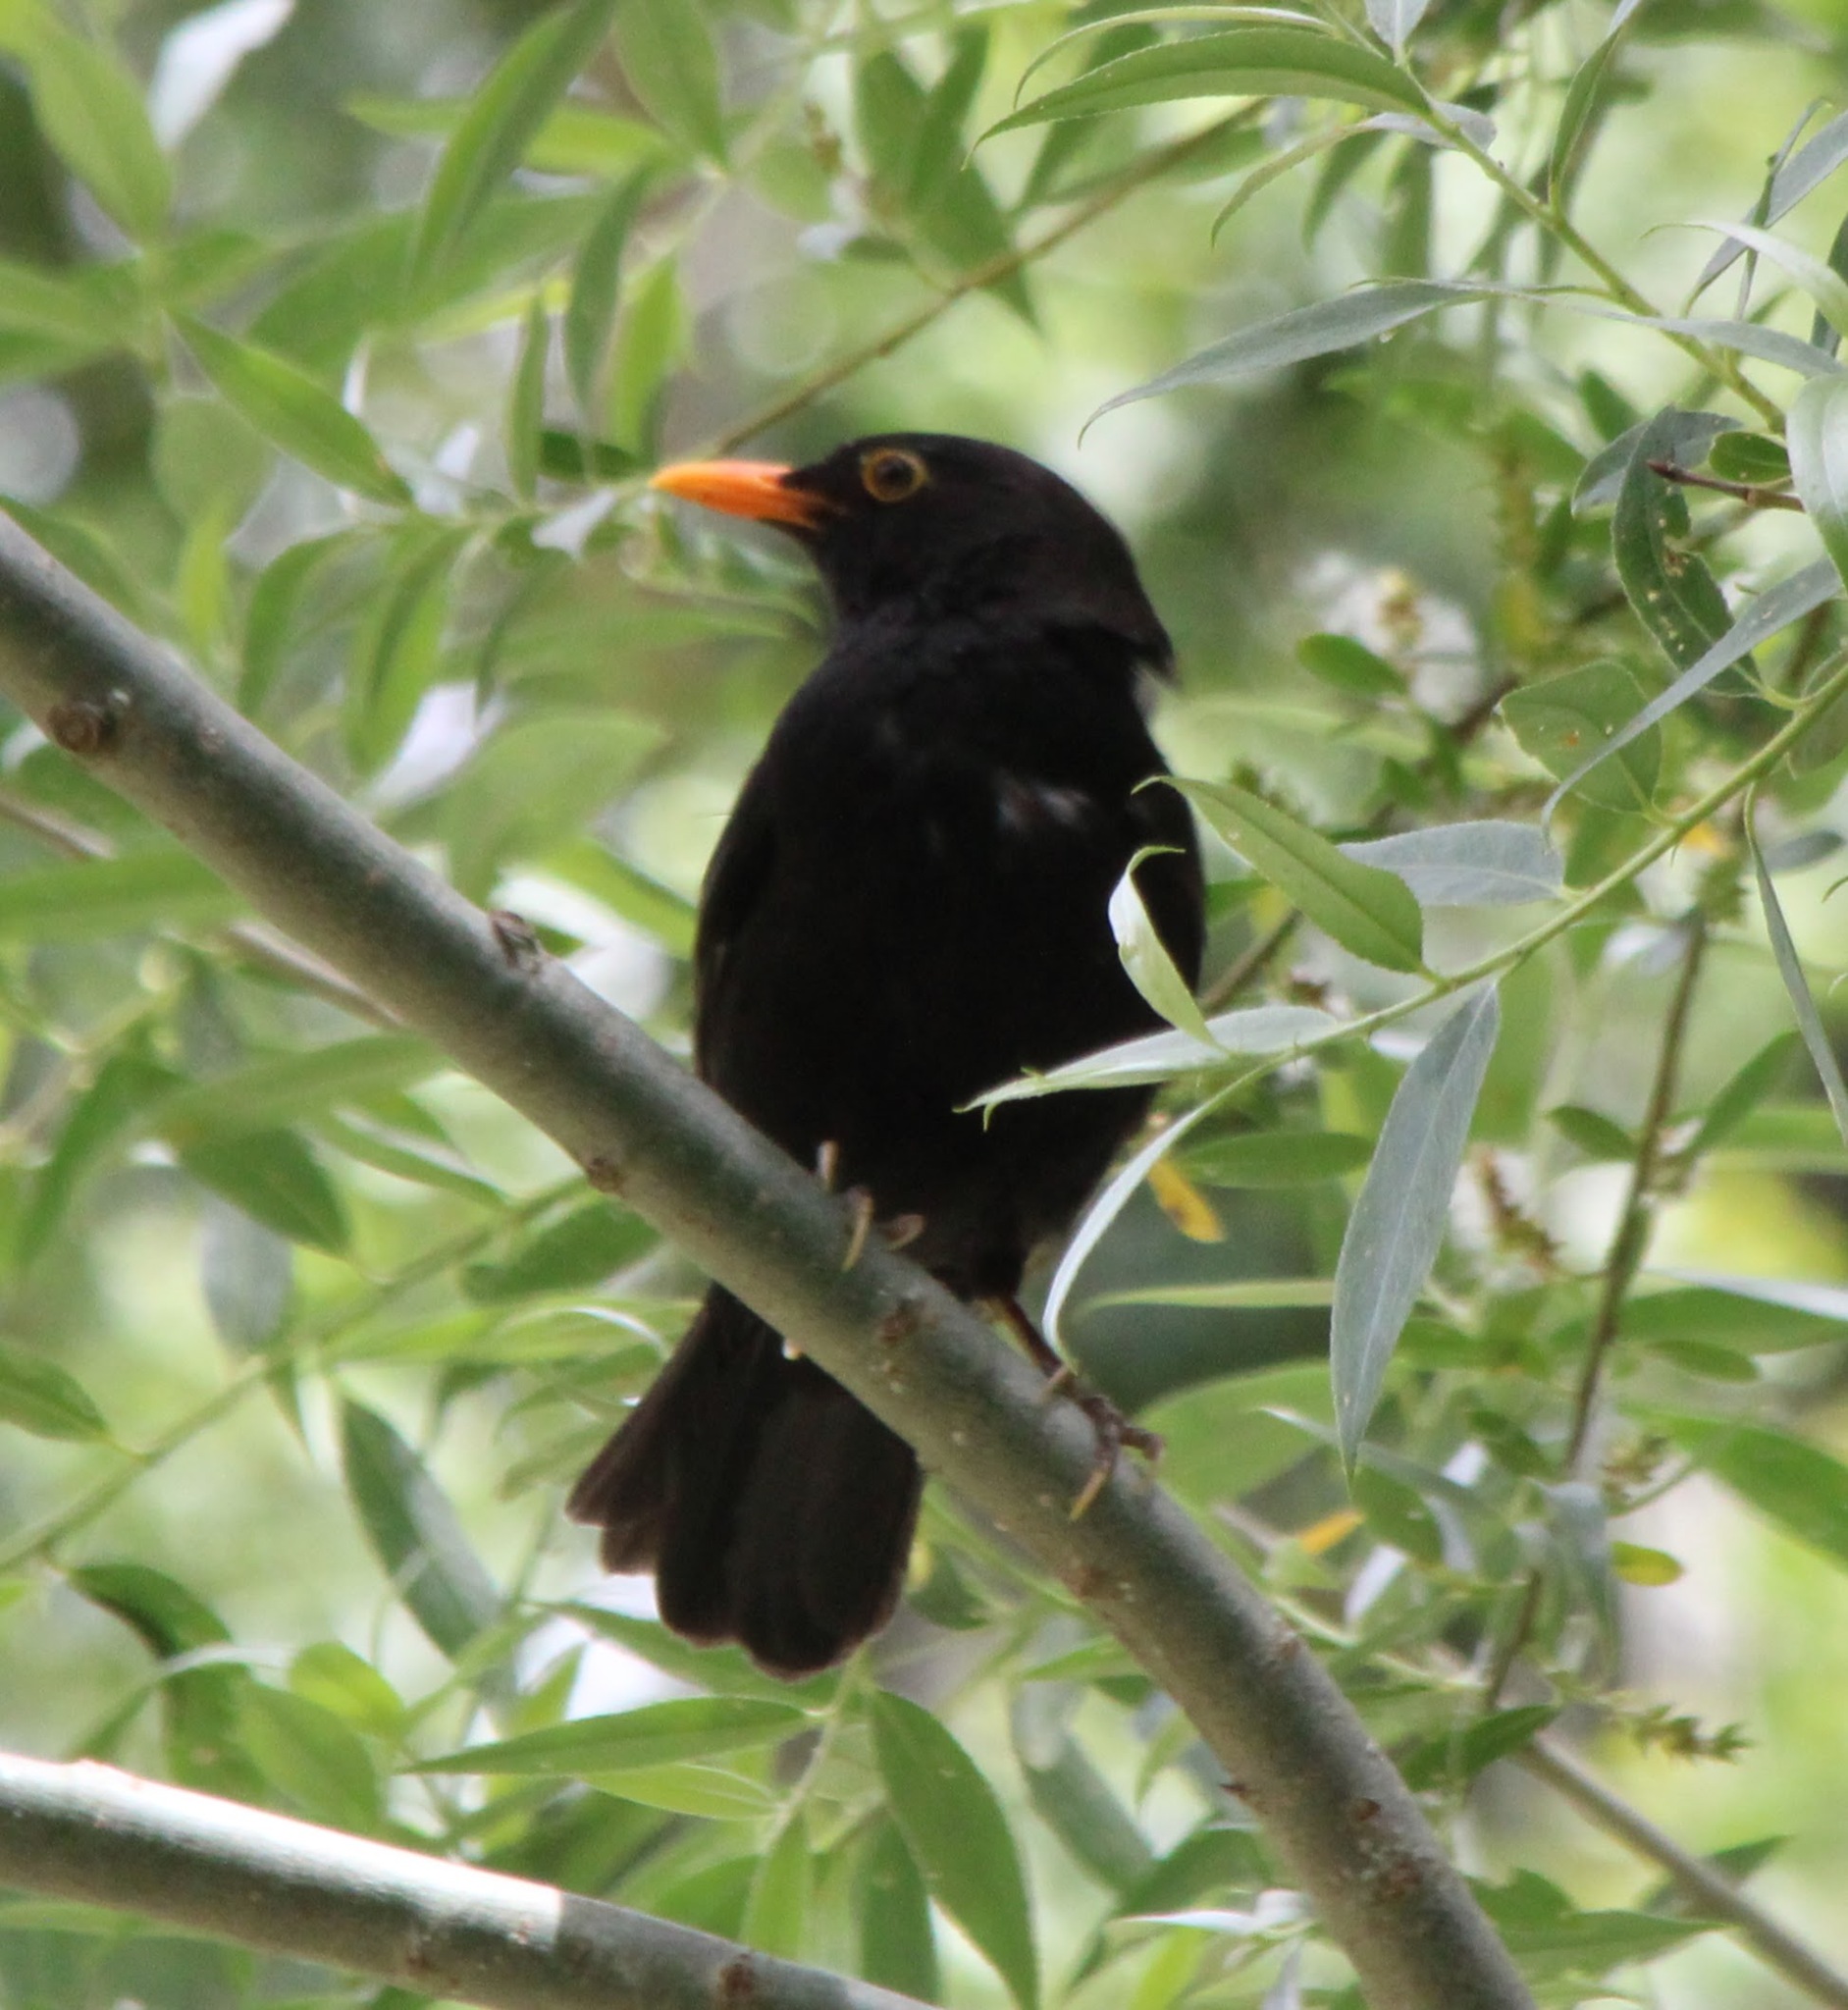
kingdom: Animalia
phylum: Chordata
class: Aves
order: Passeriformes
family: Turdidae
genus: Turdus
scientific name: Turdus merula
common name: Common blackbird
